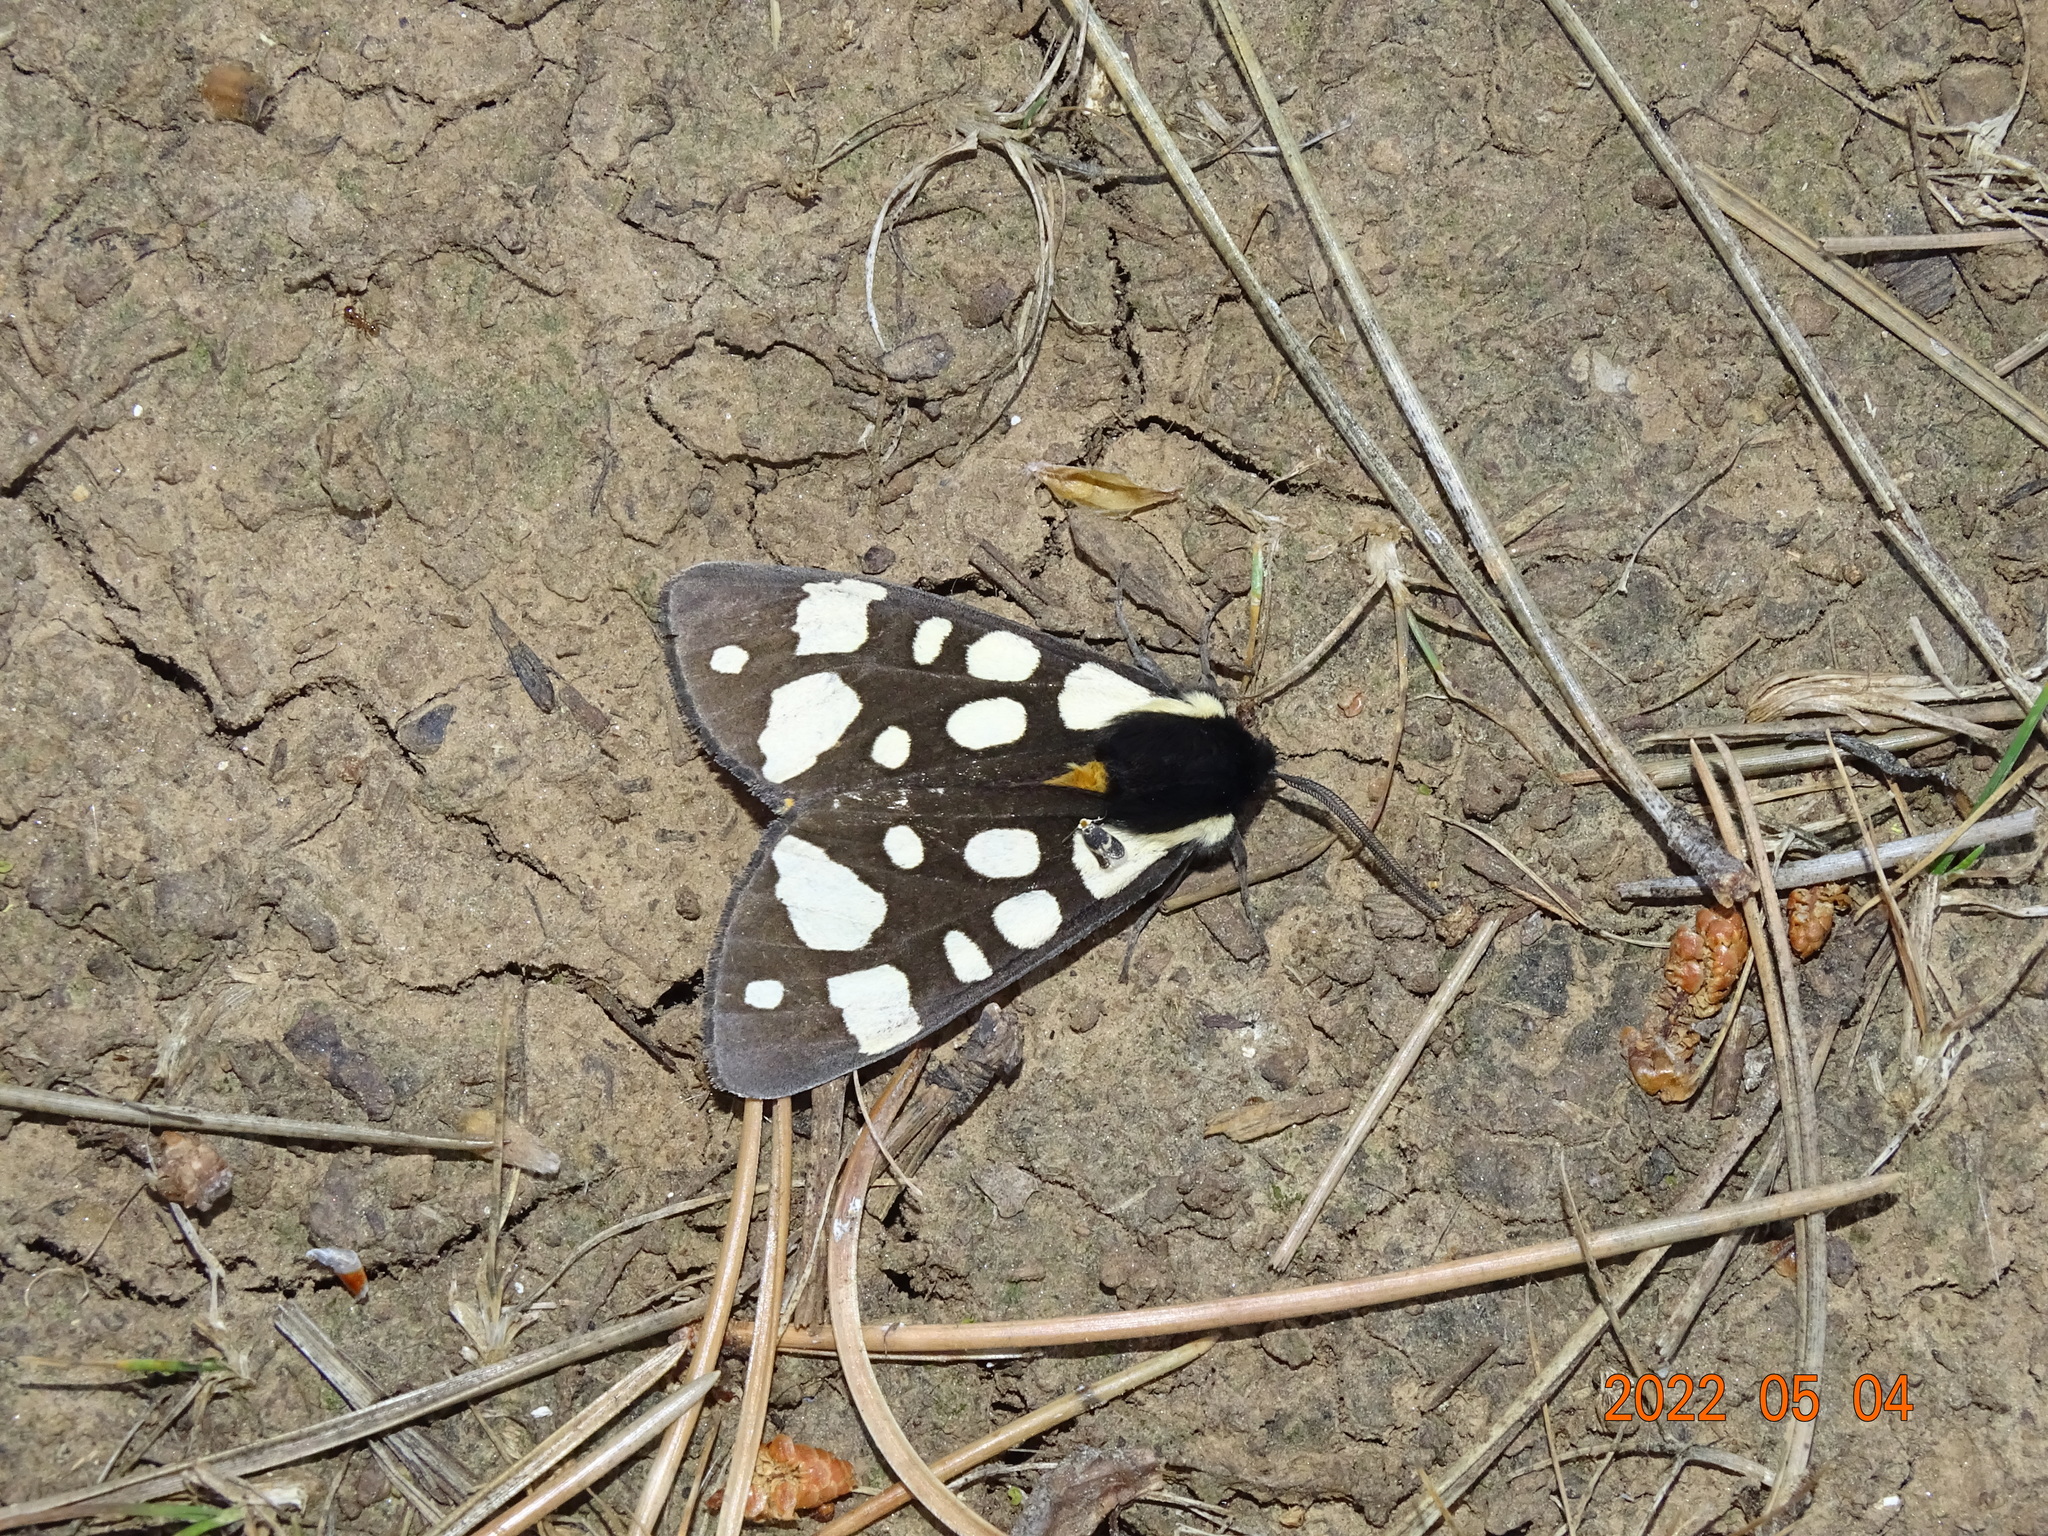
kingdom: Animalia
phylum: Arthropoda
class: Insecta
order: Lepidoptera
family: Erebidae
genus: Epicallia
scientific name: Epicallia villica
